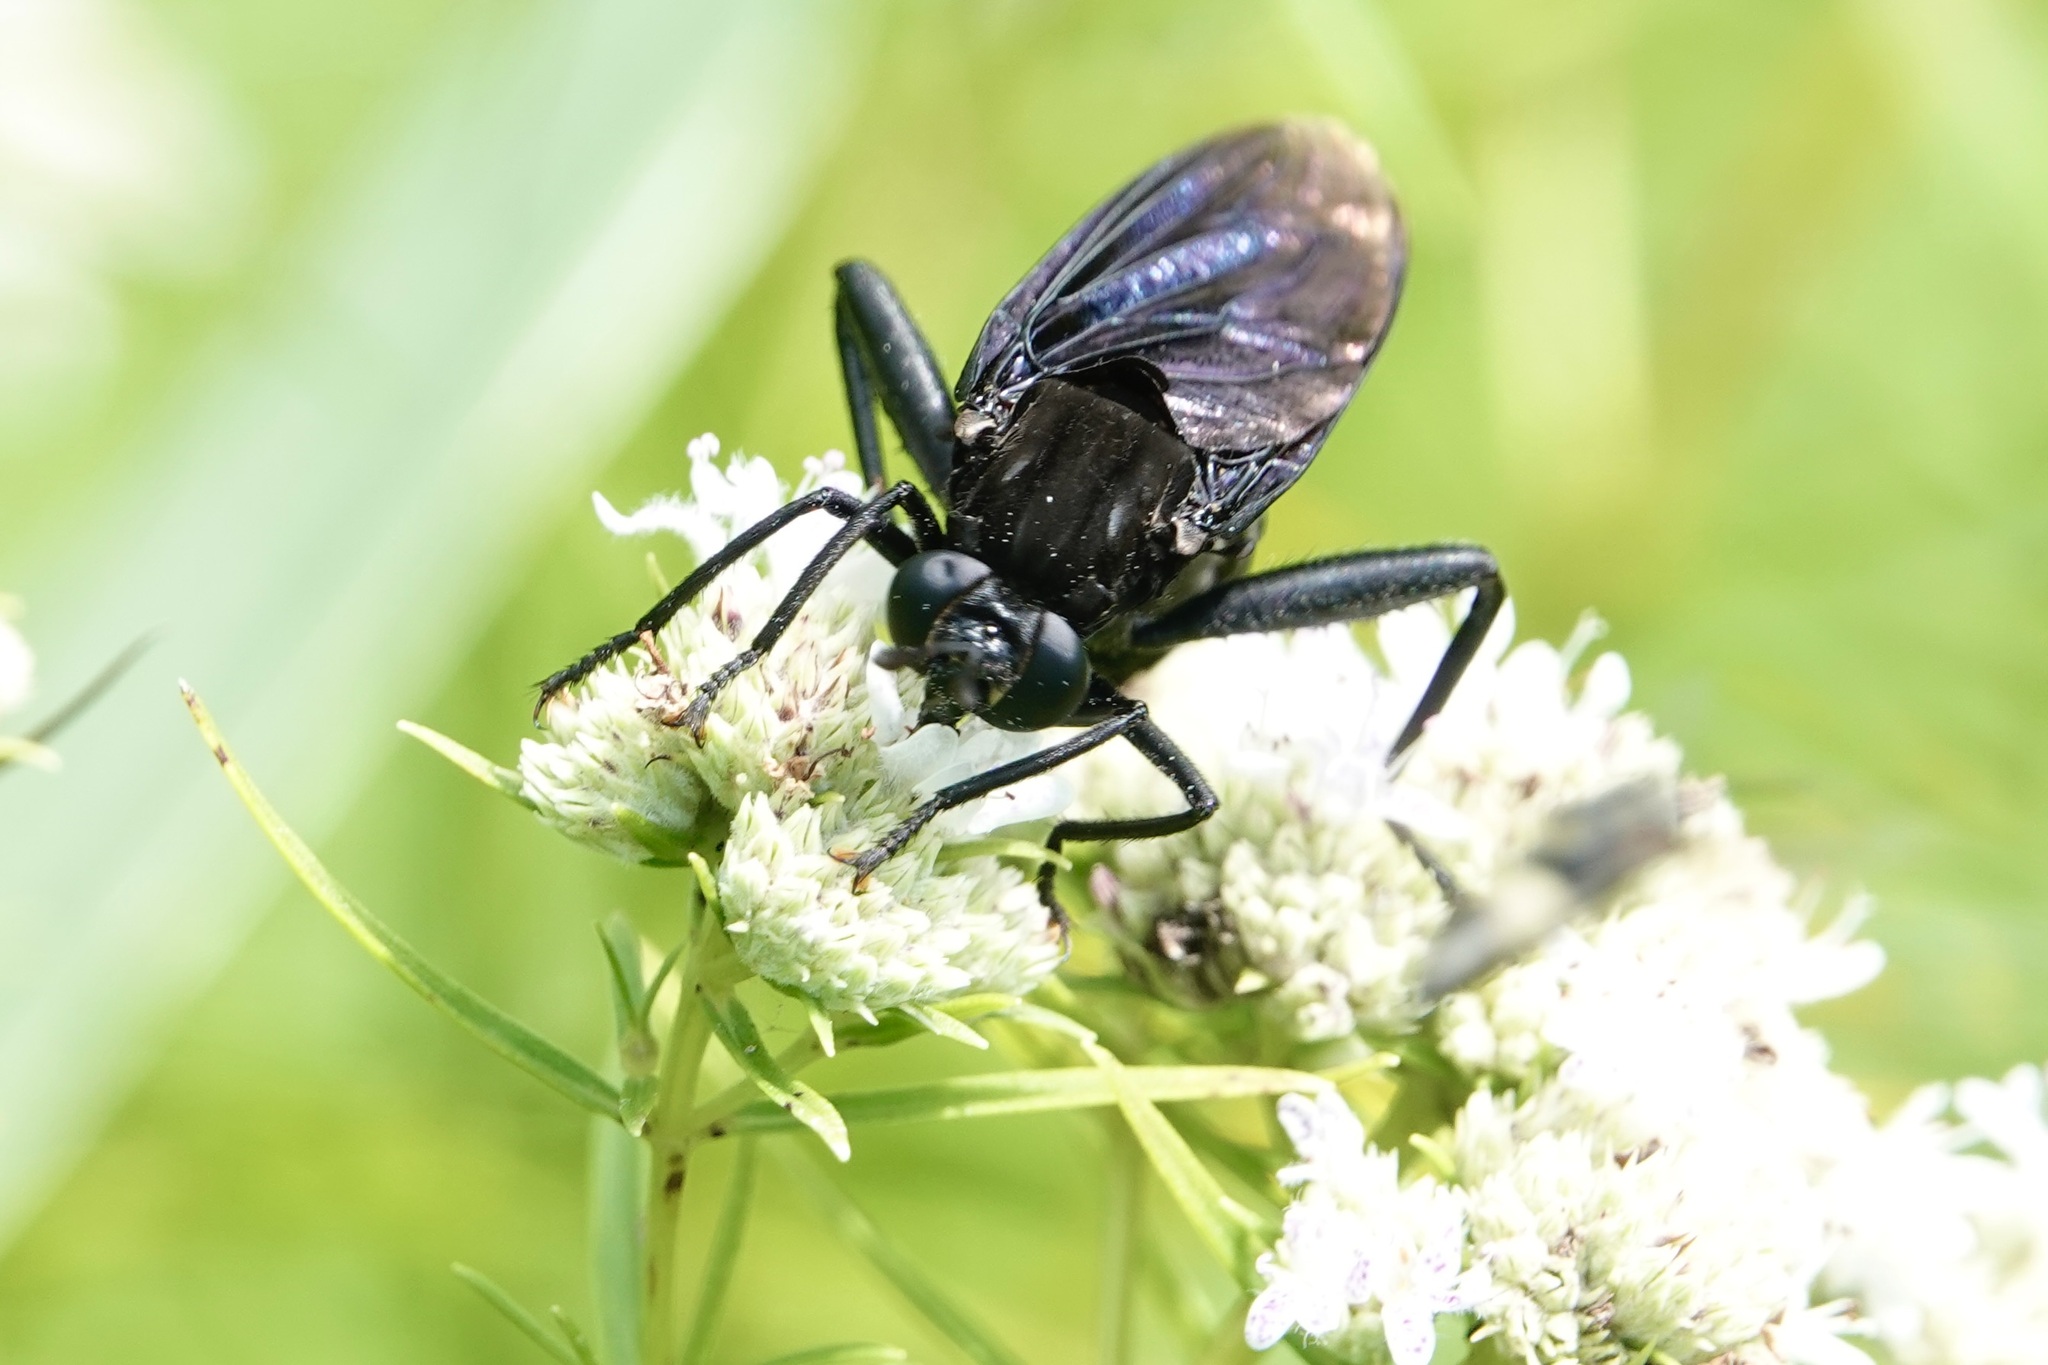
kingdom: Animalia
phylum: Arthropoda
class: Insecta
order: Diptera
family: Mydidae
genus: Mydas
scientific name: Mydas clavatus
